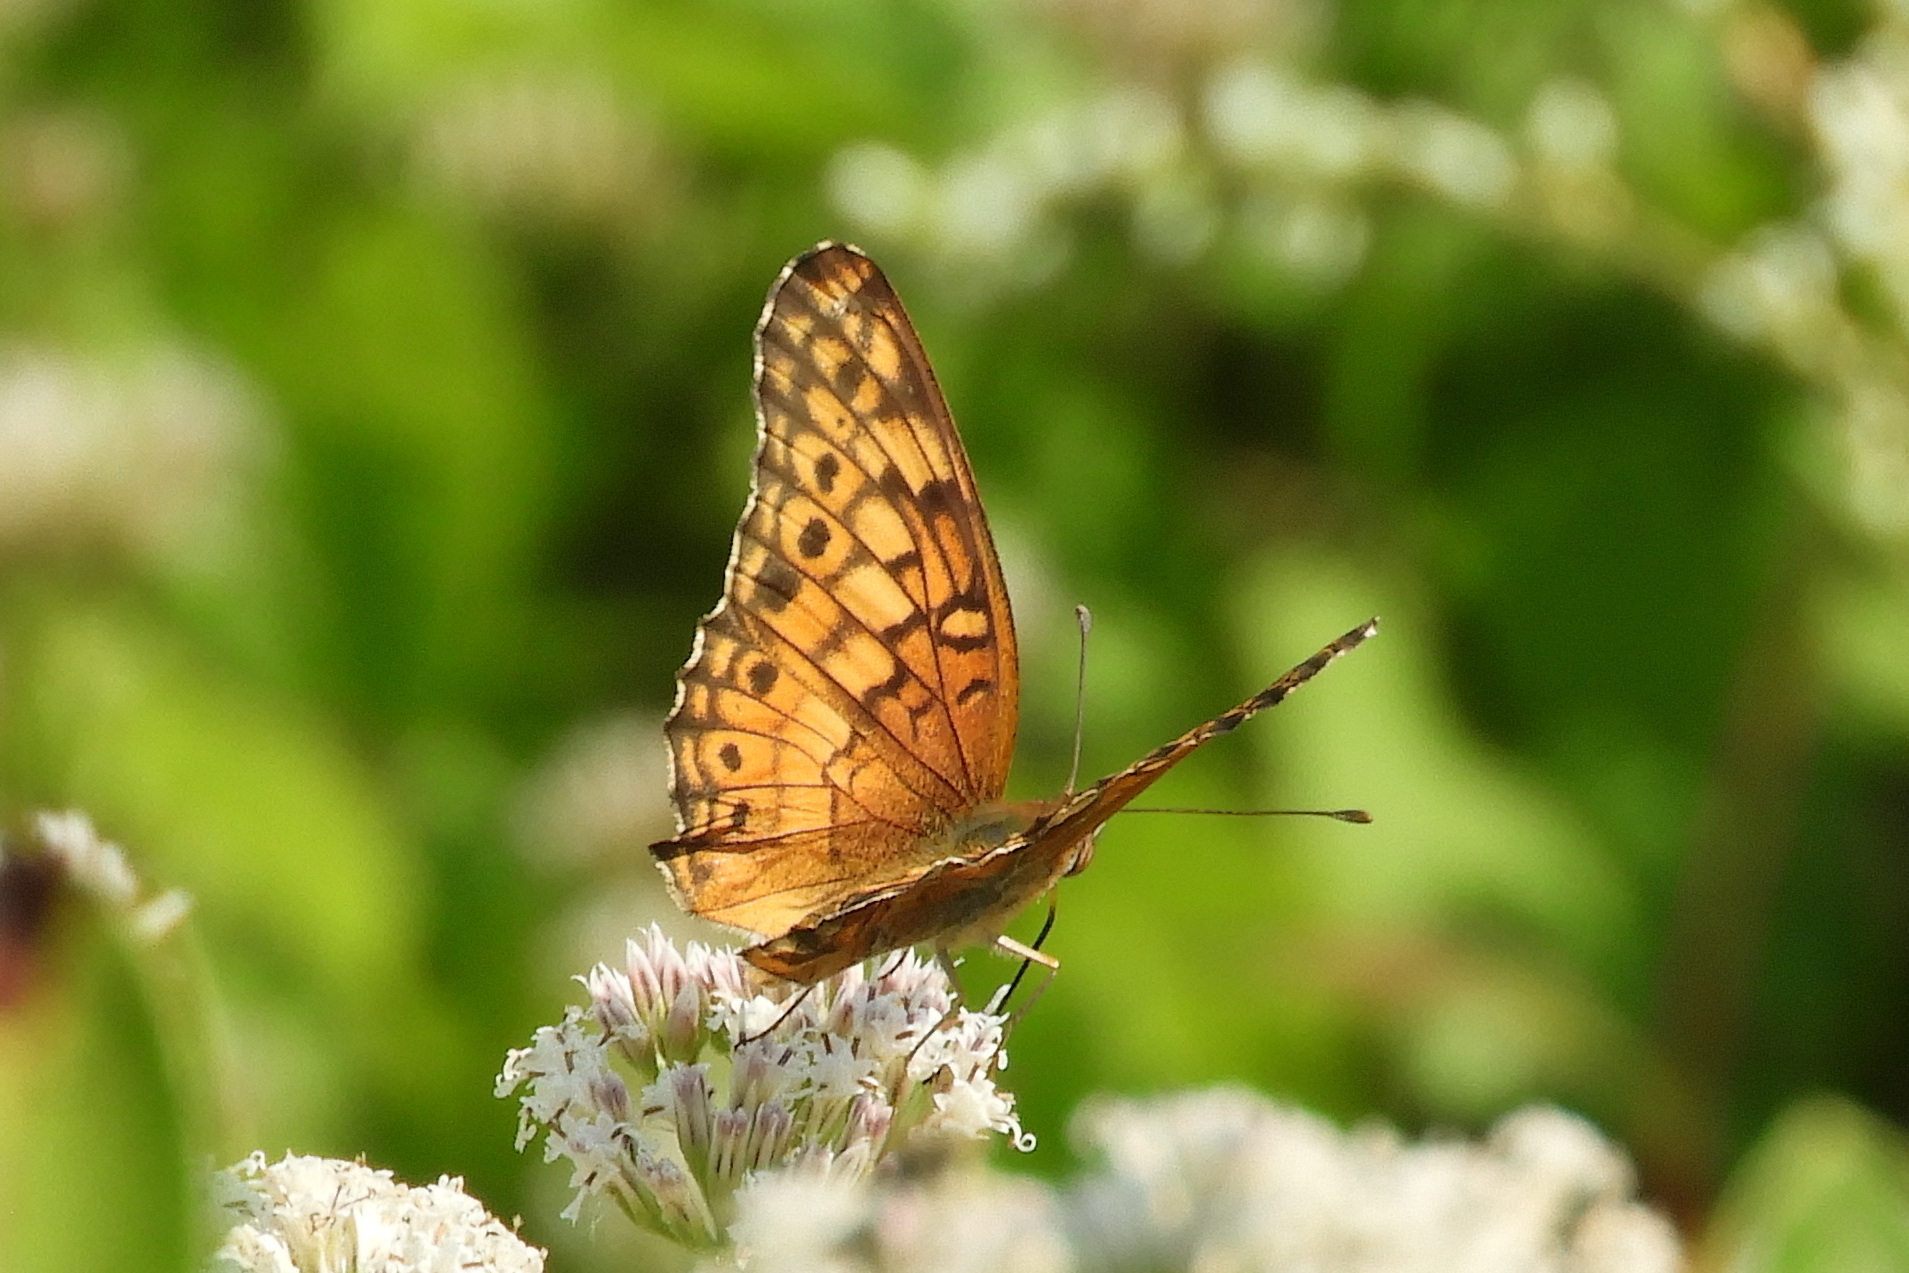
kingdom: Animalia
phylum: Arthropoda
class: Insecta
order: Lepidoptera
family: Nymphalidae
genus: Euptoieta
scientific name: Euptoieta claudia
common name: Variegated fritillary
